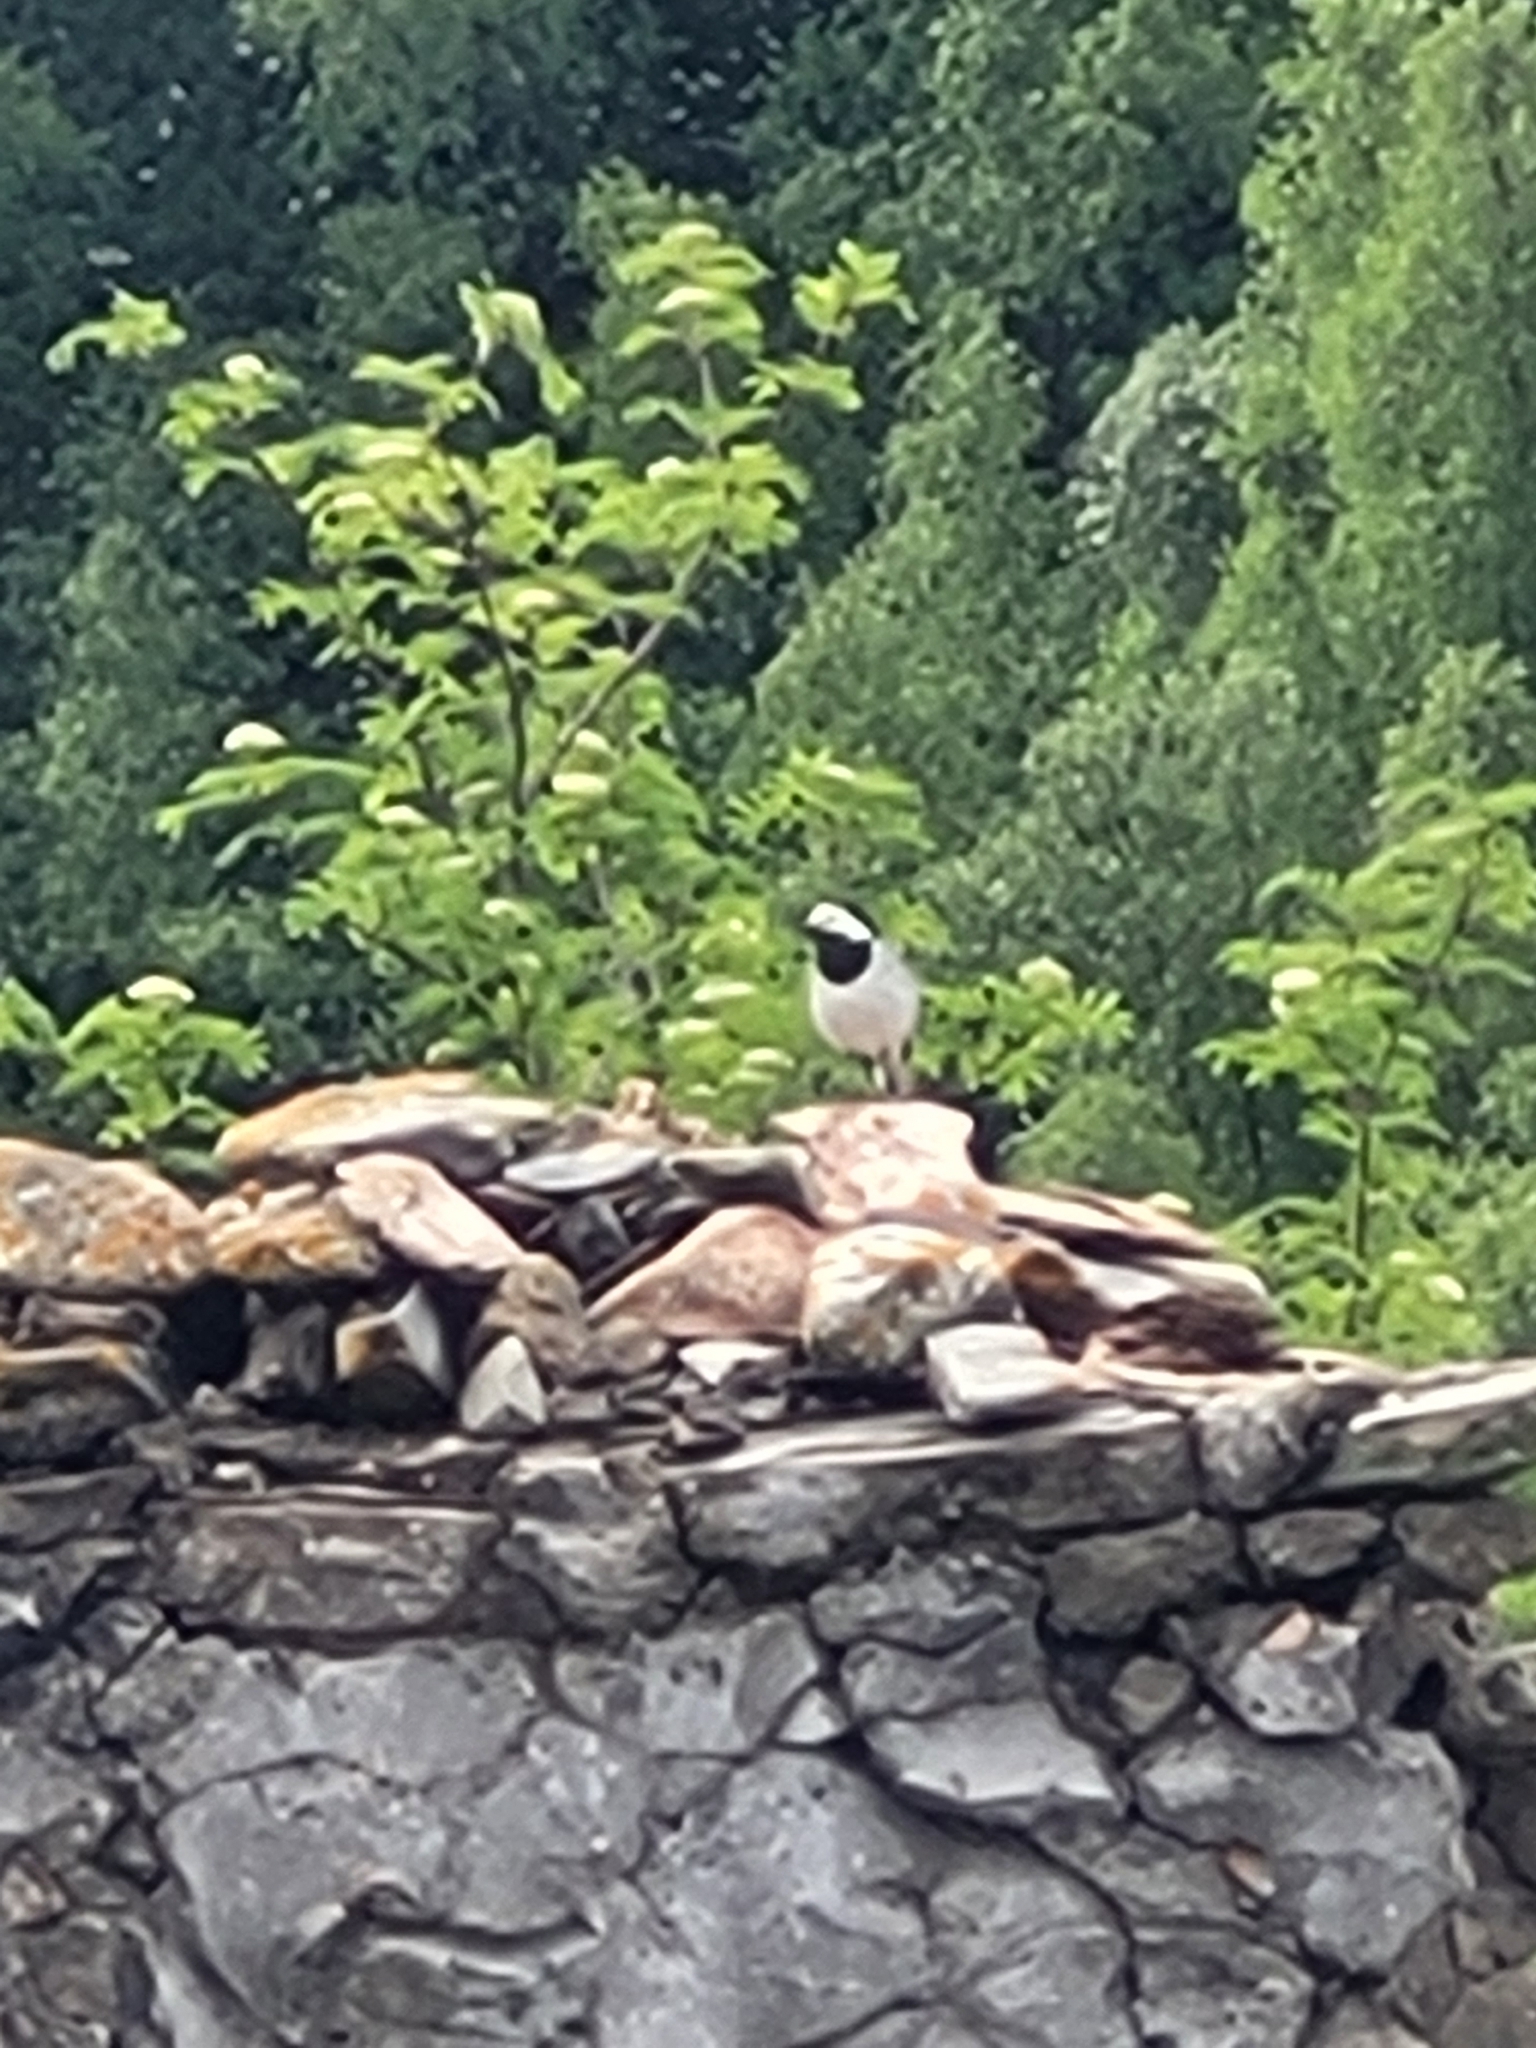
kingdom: Animalia
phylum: Chordata
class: Aves
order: Passeriformes
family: Motacillidae
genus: Motacilla
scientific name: Motacilla alba
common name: White wagtail
